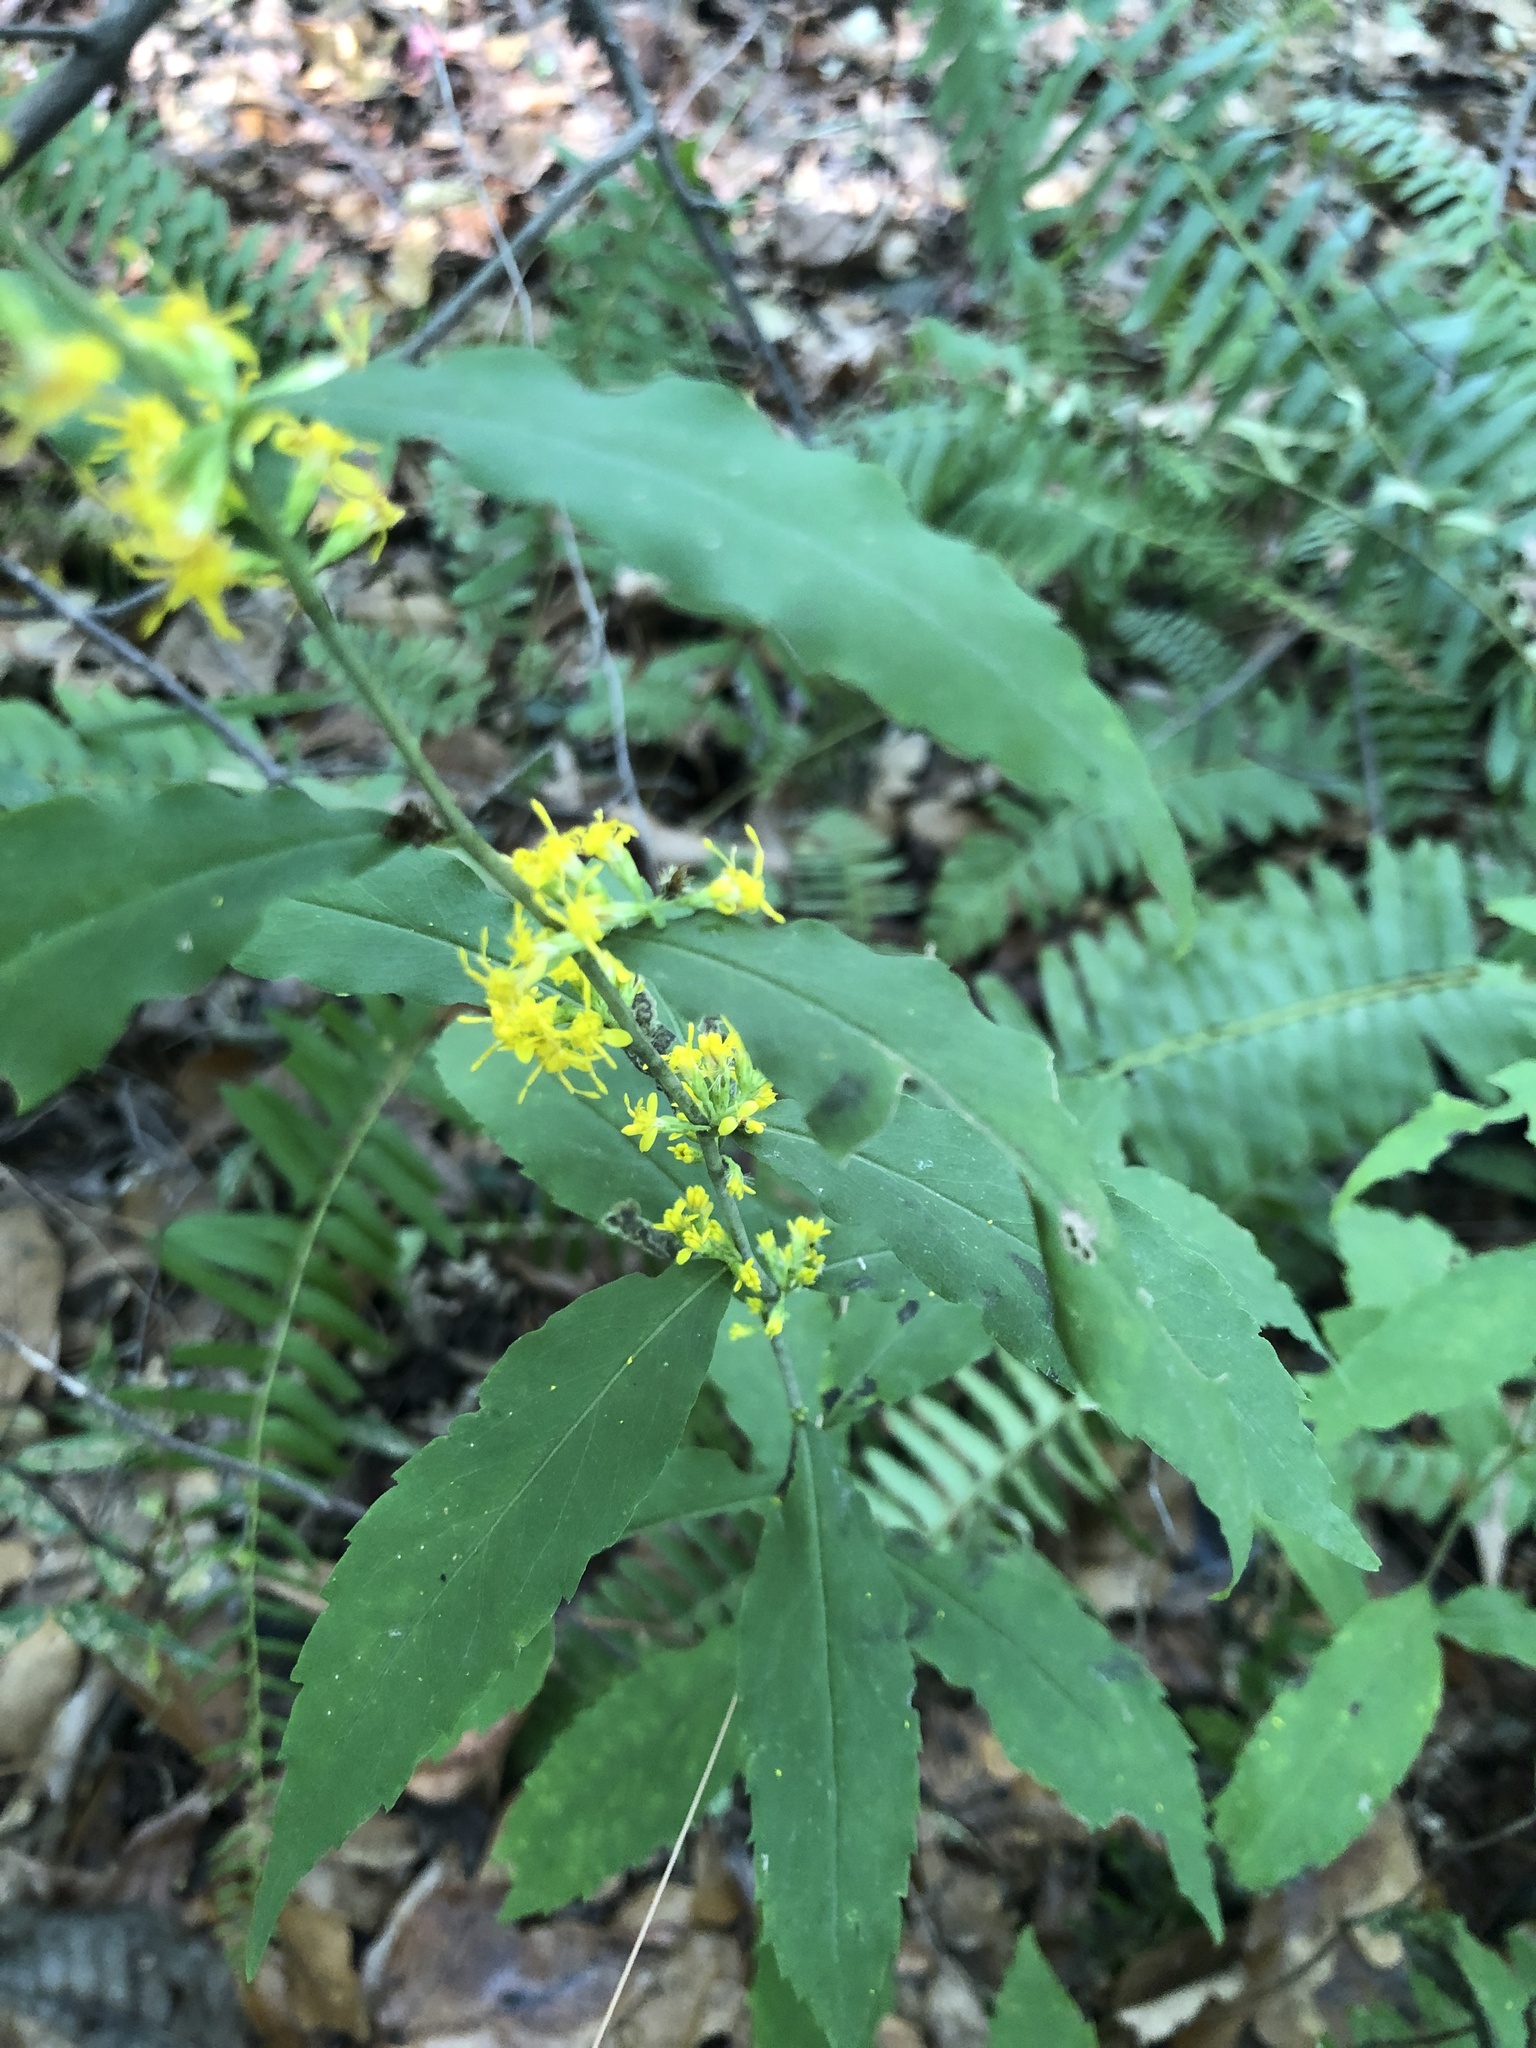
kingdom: Plantae
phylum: Tracheophyta
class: Magnoliopsida
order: Asterales
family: Asteraceae
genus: Solidago
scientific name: Solidago caesia
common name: Woodland goldenrod
